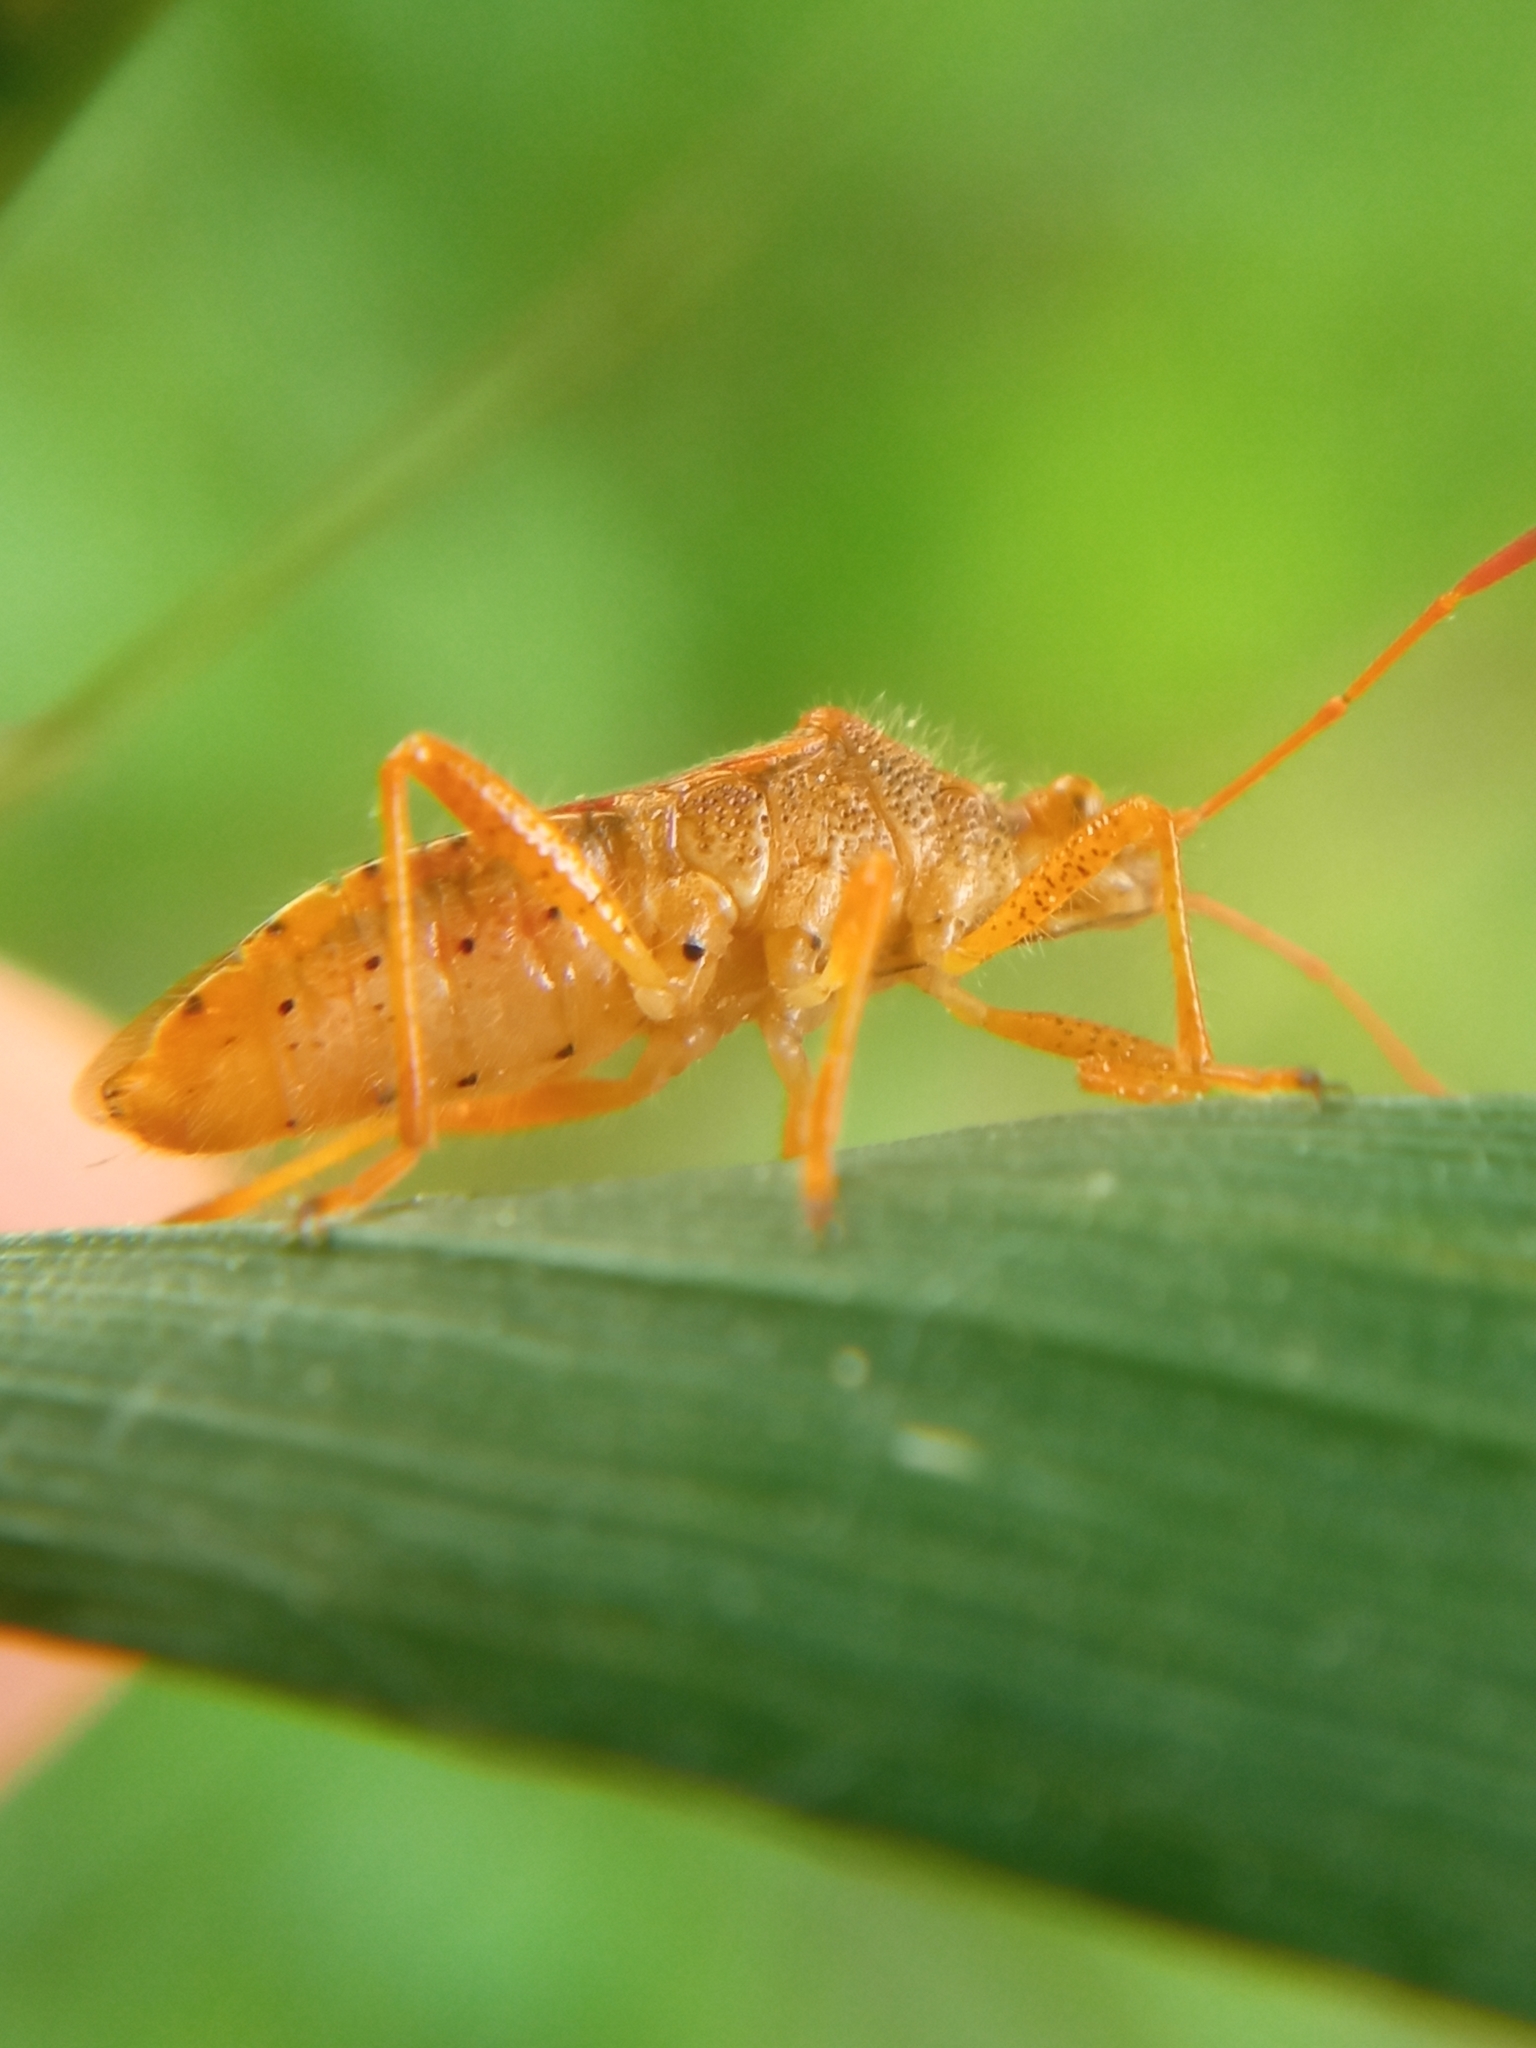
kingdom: Animalia
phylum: Arthropoda
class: Insecta
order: Hemiptera
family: Rhopalidae
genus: Rhopalus
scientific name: Rhopalus maculatus
